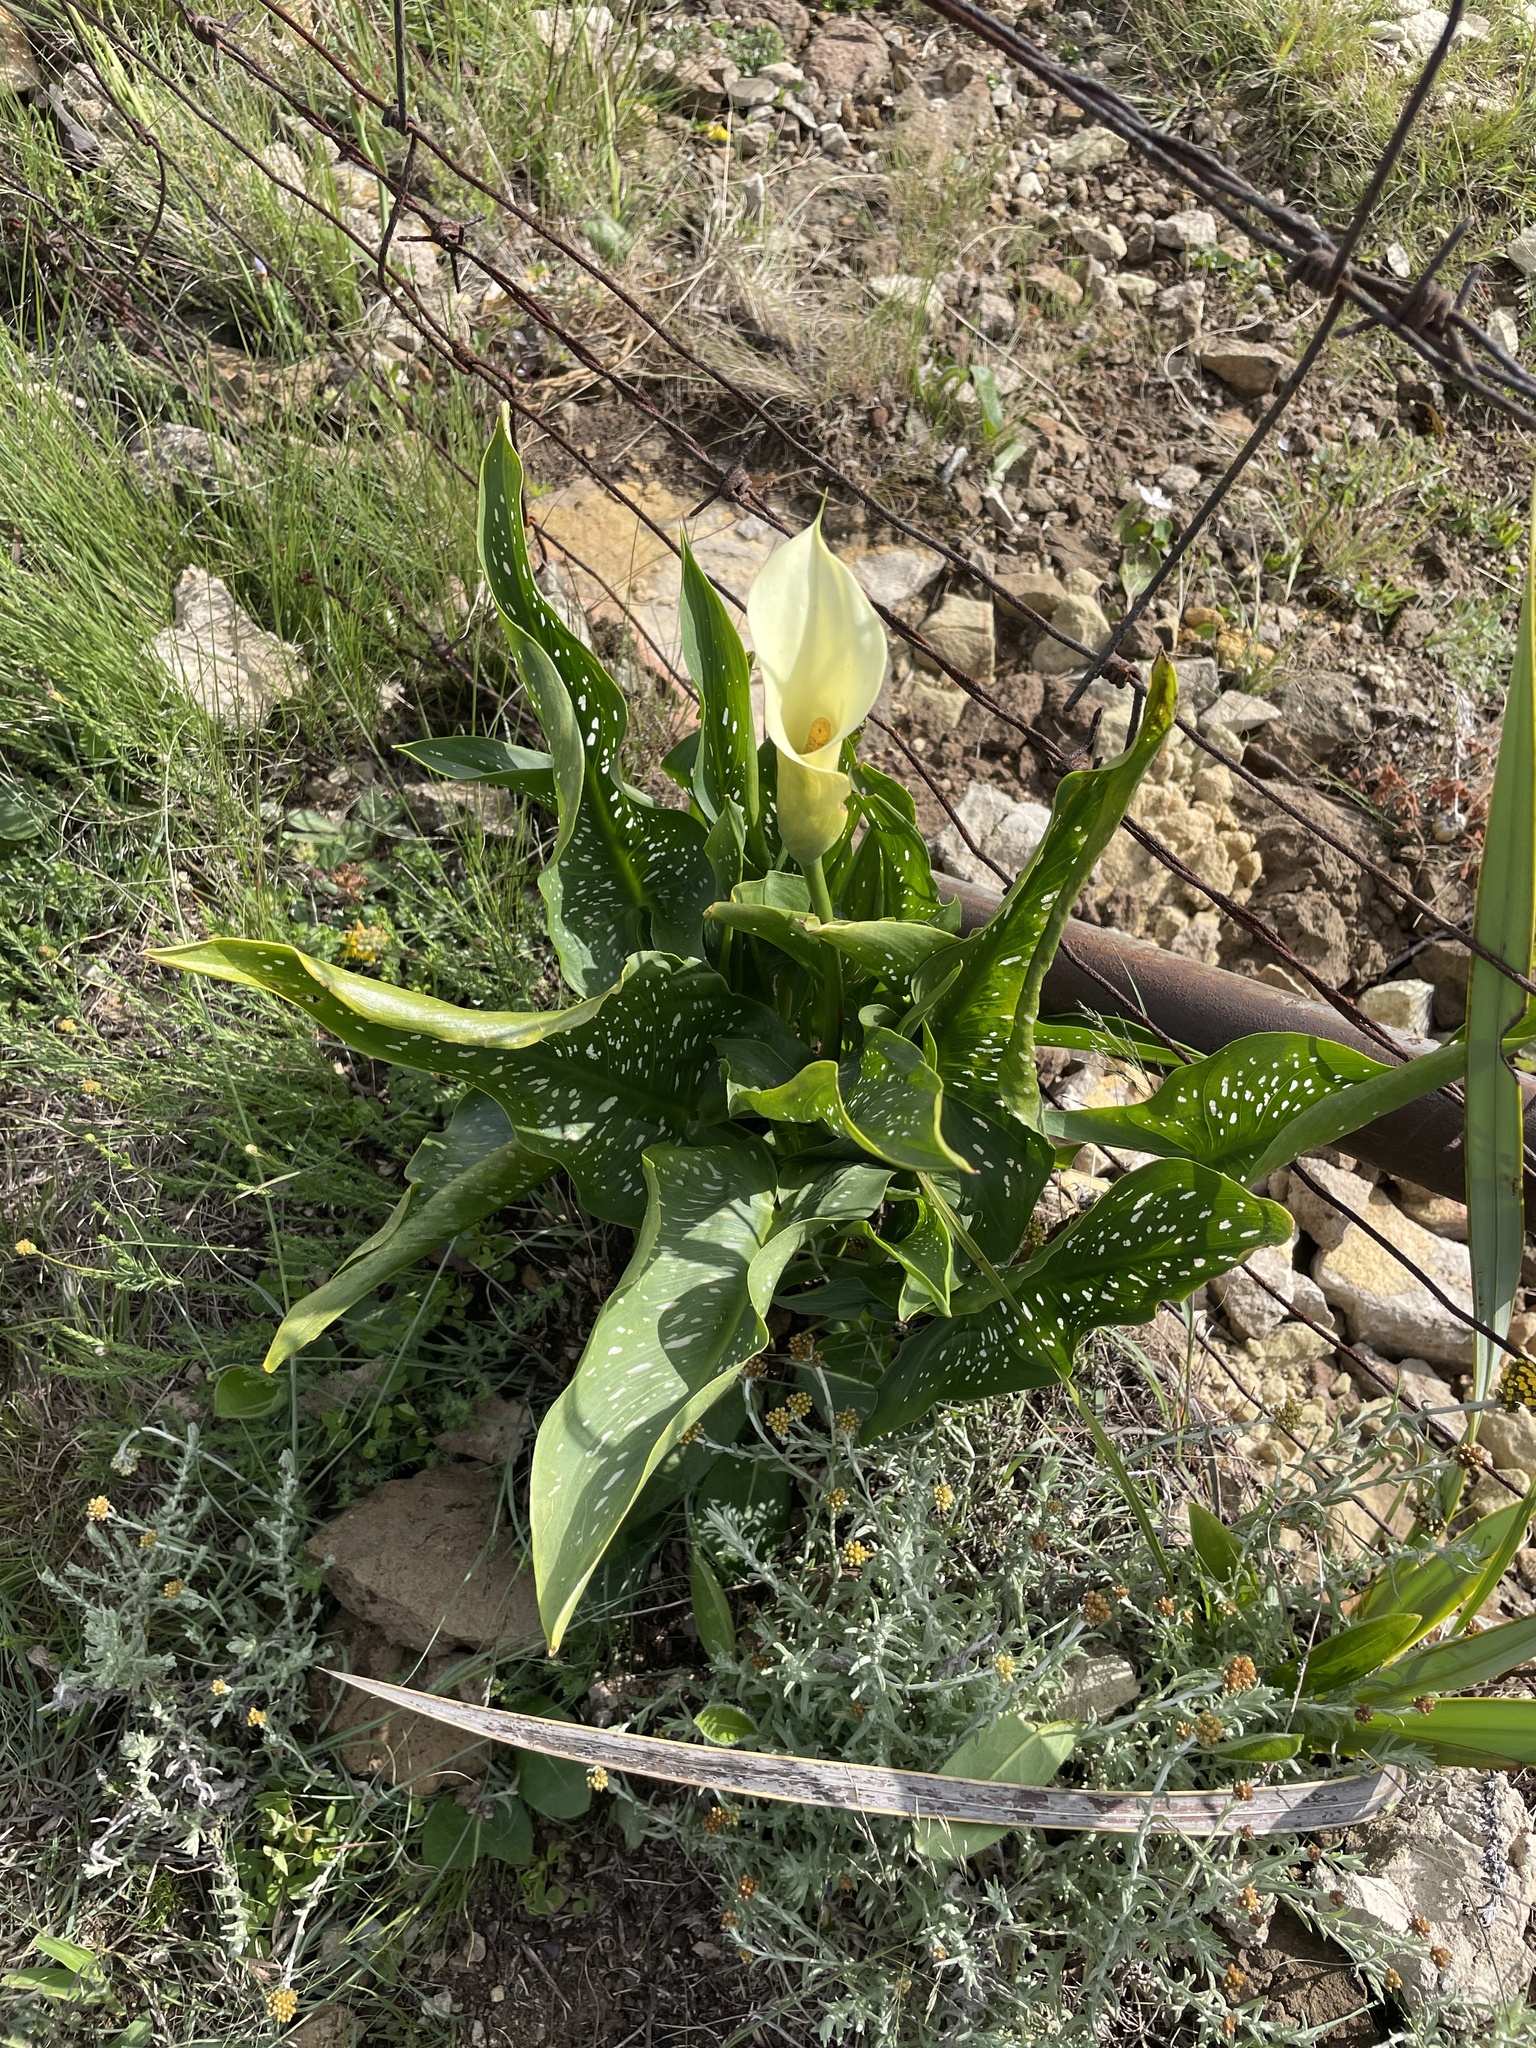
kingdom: Plantae
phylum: Tracheophyta
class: Liliopsida
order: Alismatales
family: Araceae
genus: Zantedeschia
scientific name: Zantedeschia albomaculata
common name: Spotted calla lily
